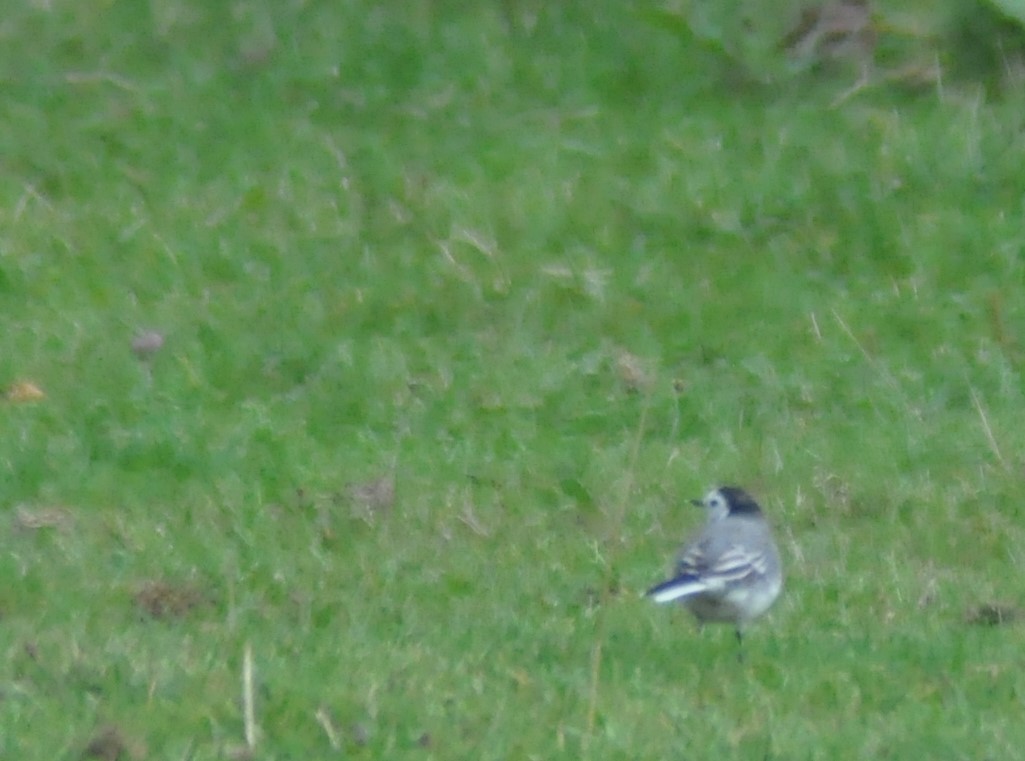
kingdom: Animalia
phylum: Chordata
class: Aves
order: Passeriformes
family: Motacillidae
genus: Motacilla
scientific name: Motacilla alba
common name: White wagtail
